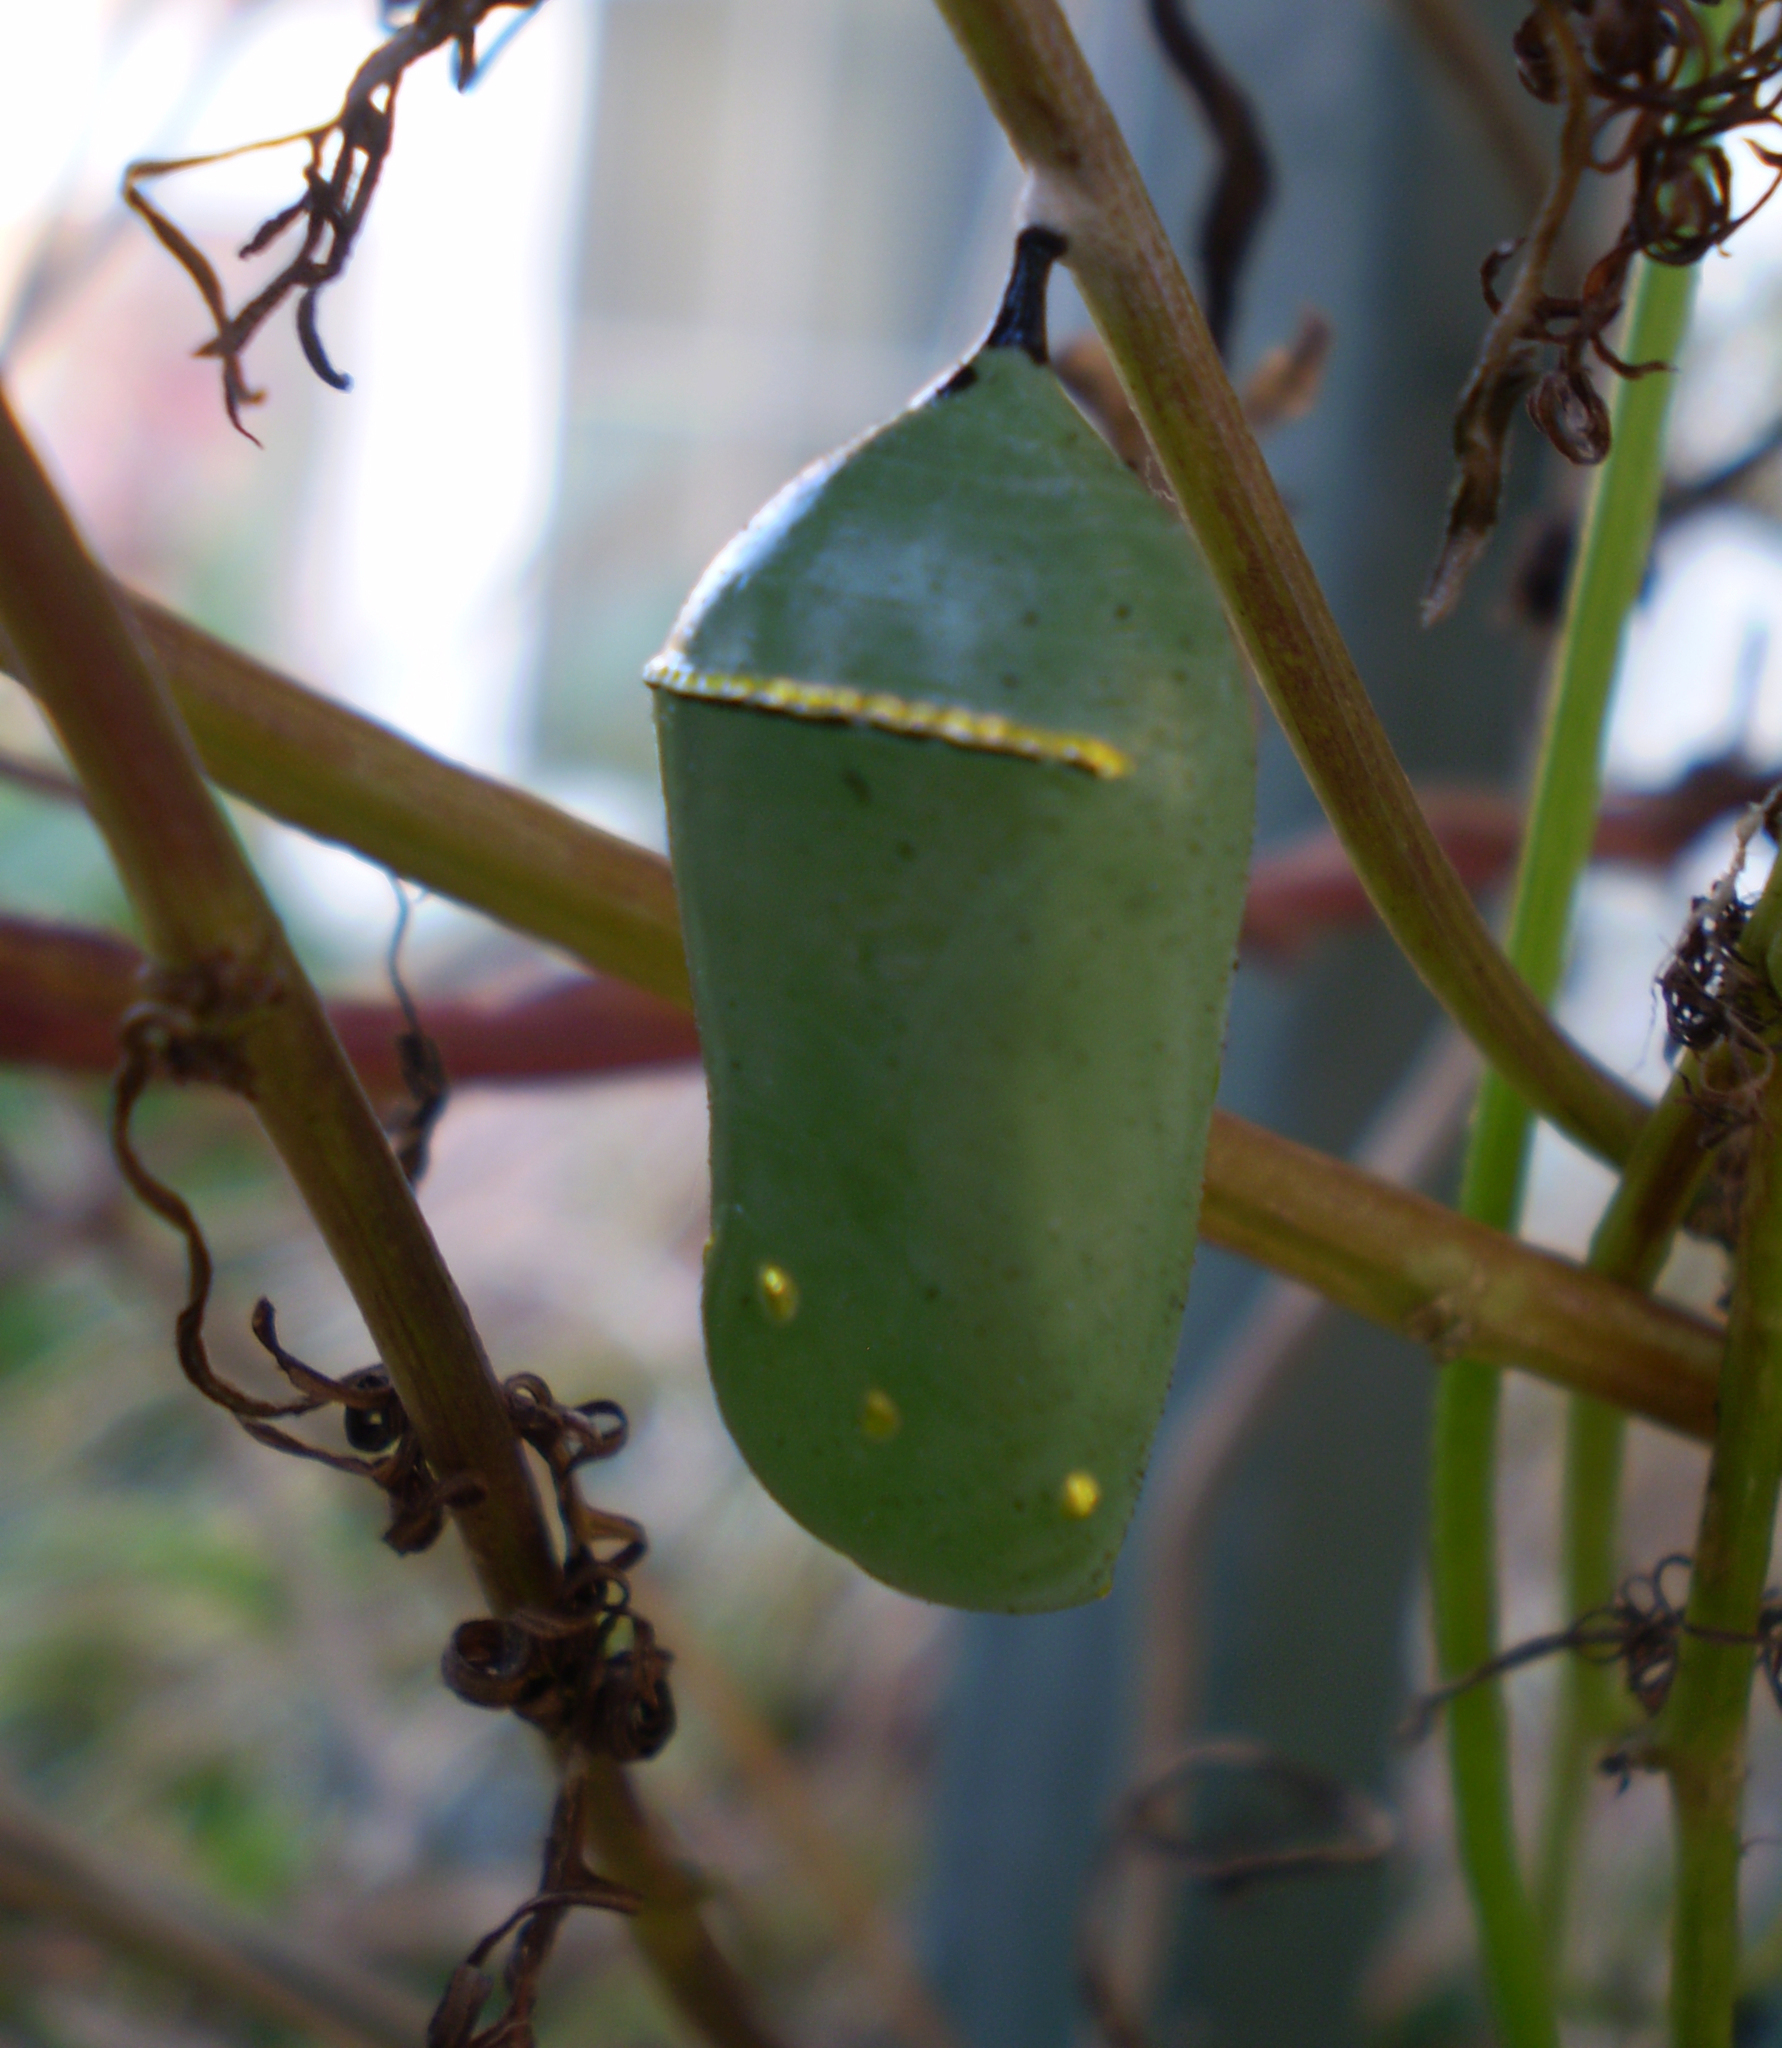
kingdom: Animalia
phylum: Arthropoda
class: Insecta
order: Lepidoptera
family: Nymphalidae
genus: Danaus
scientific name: Danaus plexippus
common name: Monarch
